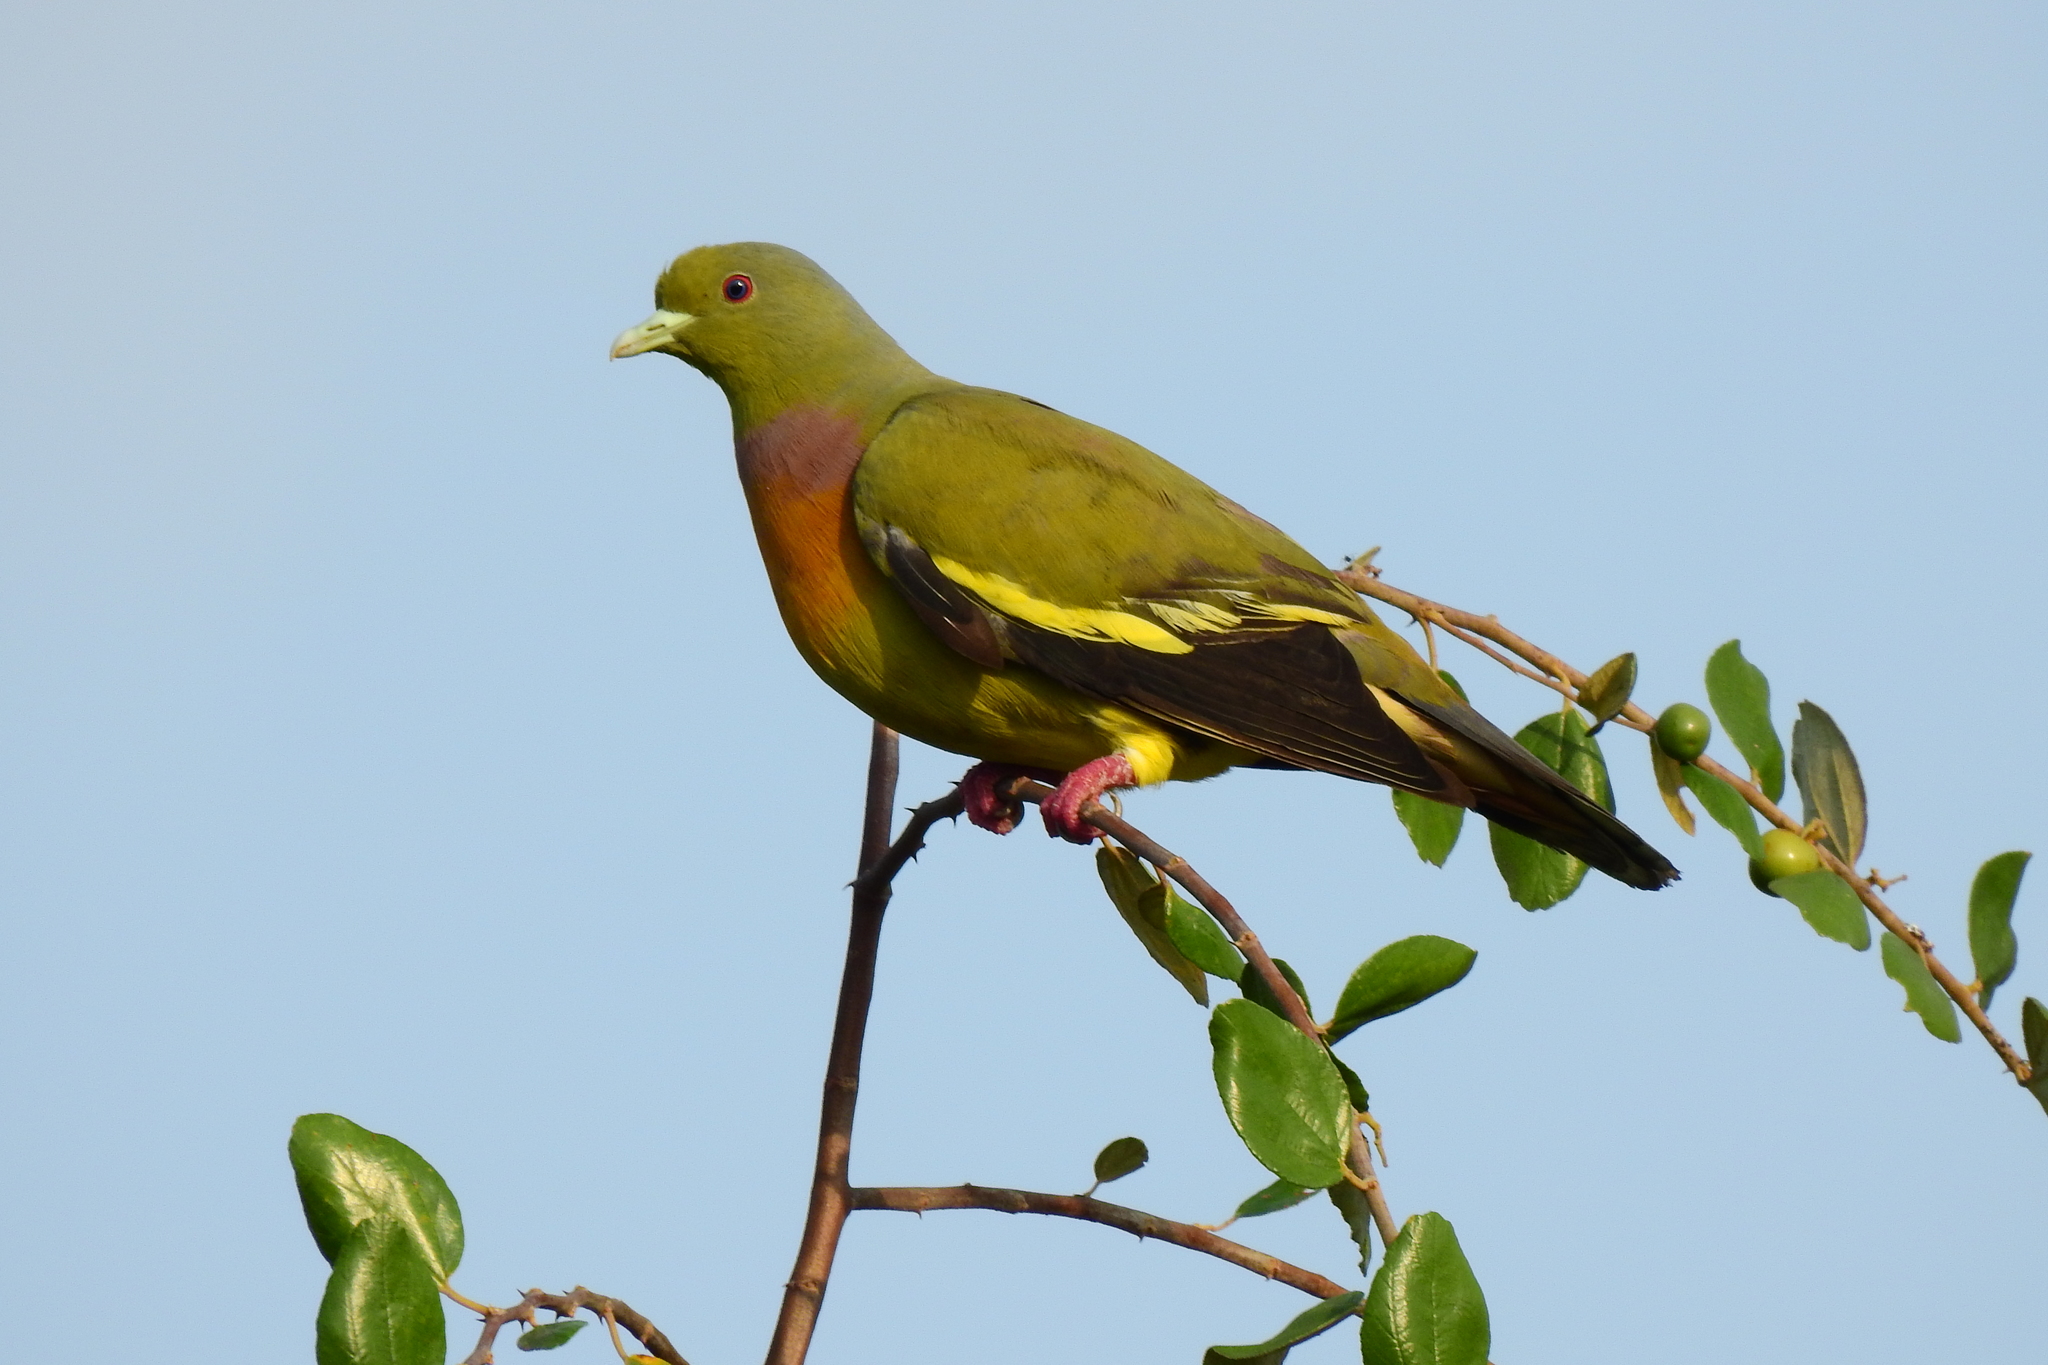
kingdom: Animalia
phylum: Chordata
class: Aves
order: Columbiformes
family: Columbidae
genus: Treron
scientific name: Treron bicinctus
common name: Orange-breasted green pigeon
